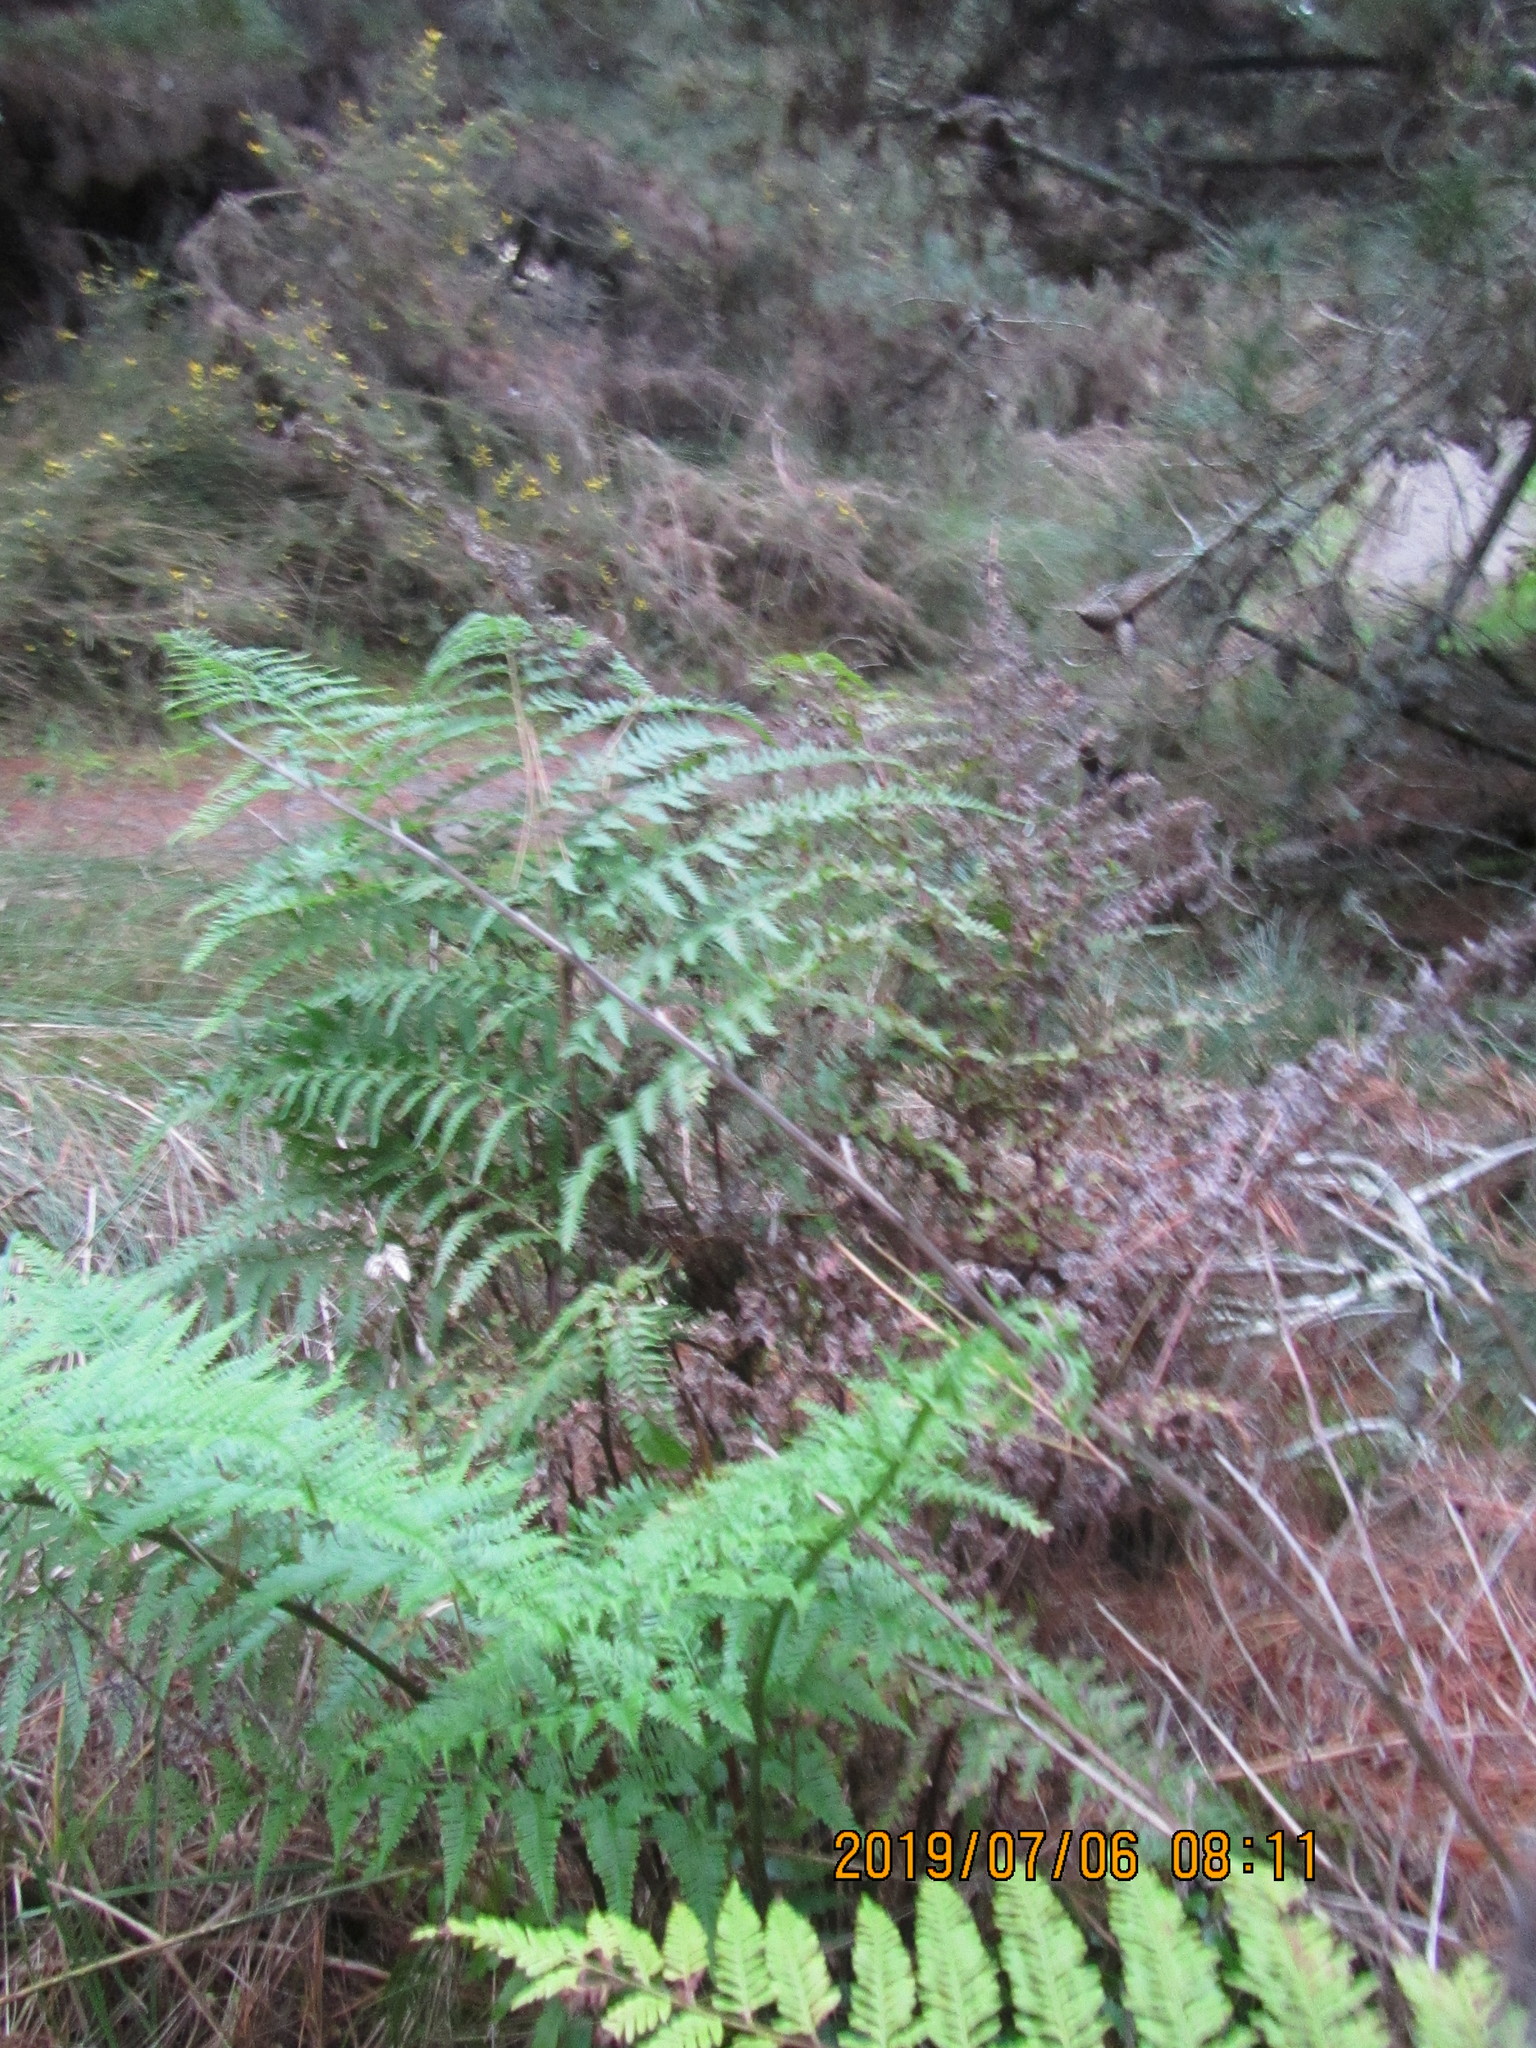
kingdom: Plantae
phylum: Tracheophyta
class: Polypodiopsida
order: Polypodiales
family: Pteridaceae
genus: Pteris
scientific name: Pteris tremula
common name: Australian brake
